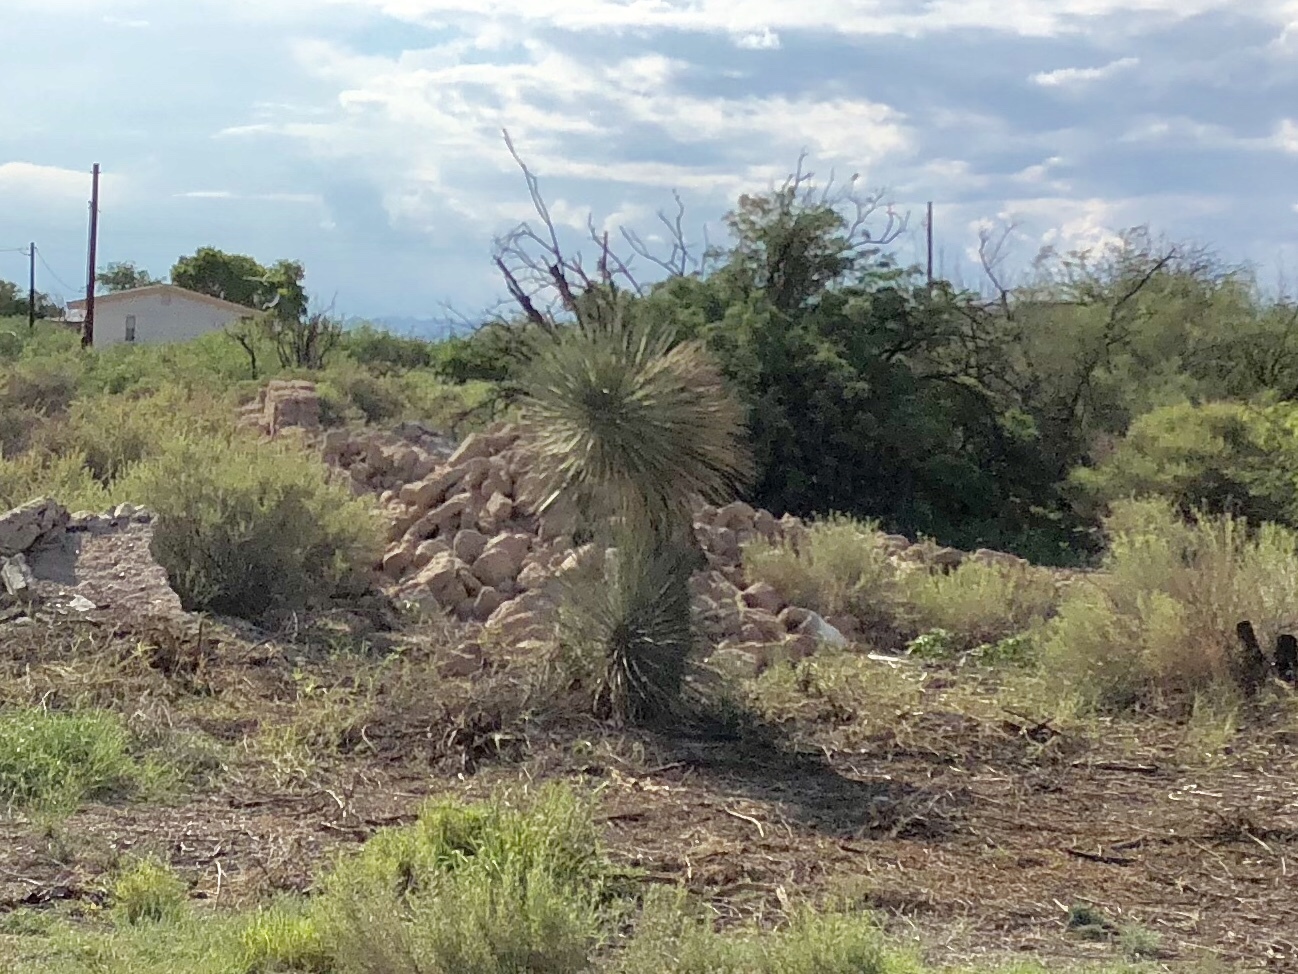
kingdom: Plantae
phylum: Tracheophyta
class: Liliopsida
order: Asparagales
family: Asparagaceae
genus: Yucca
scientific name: Yucca elata
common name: Palmella
